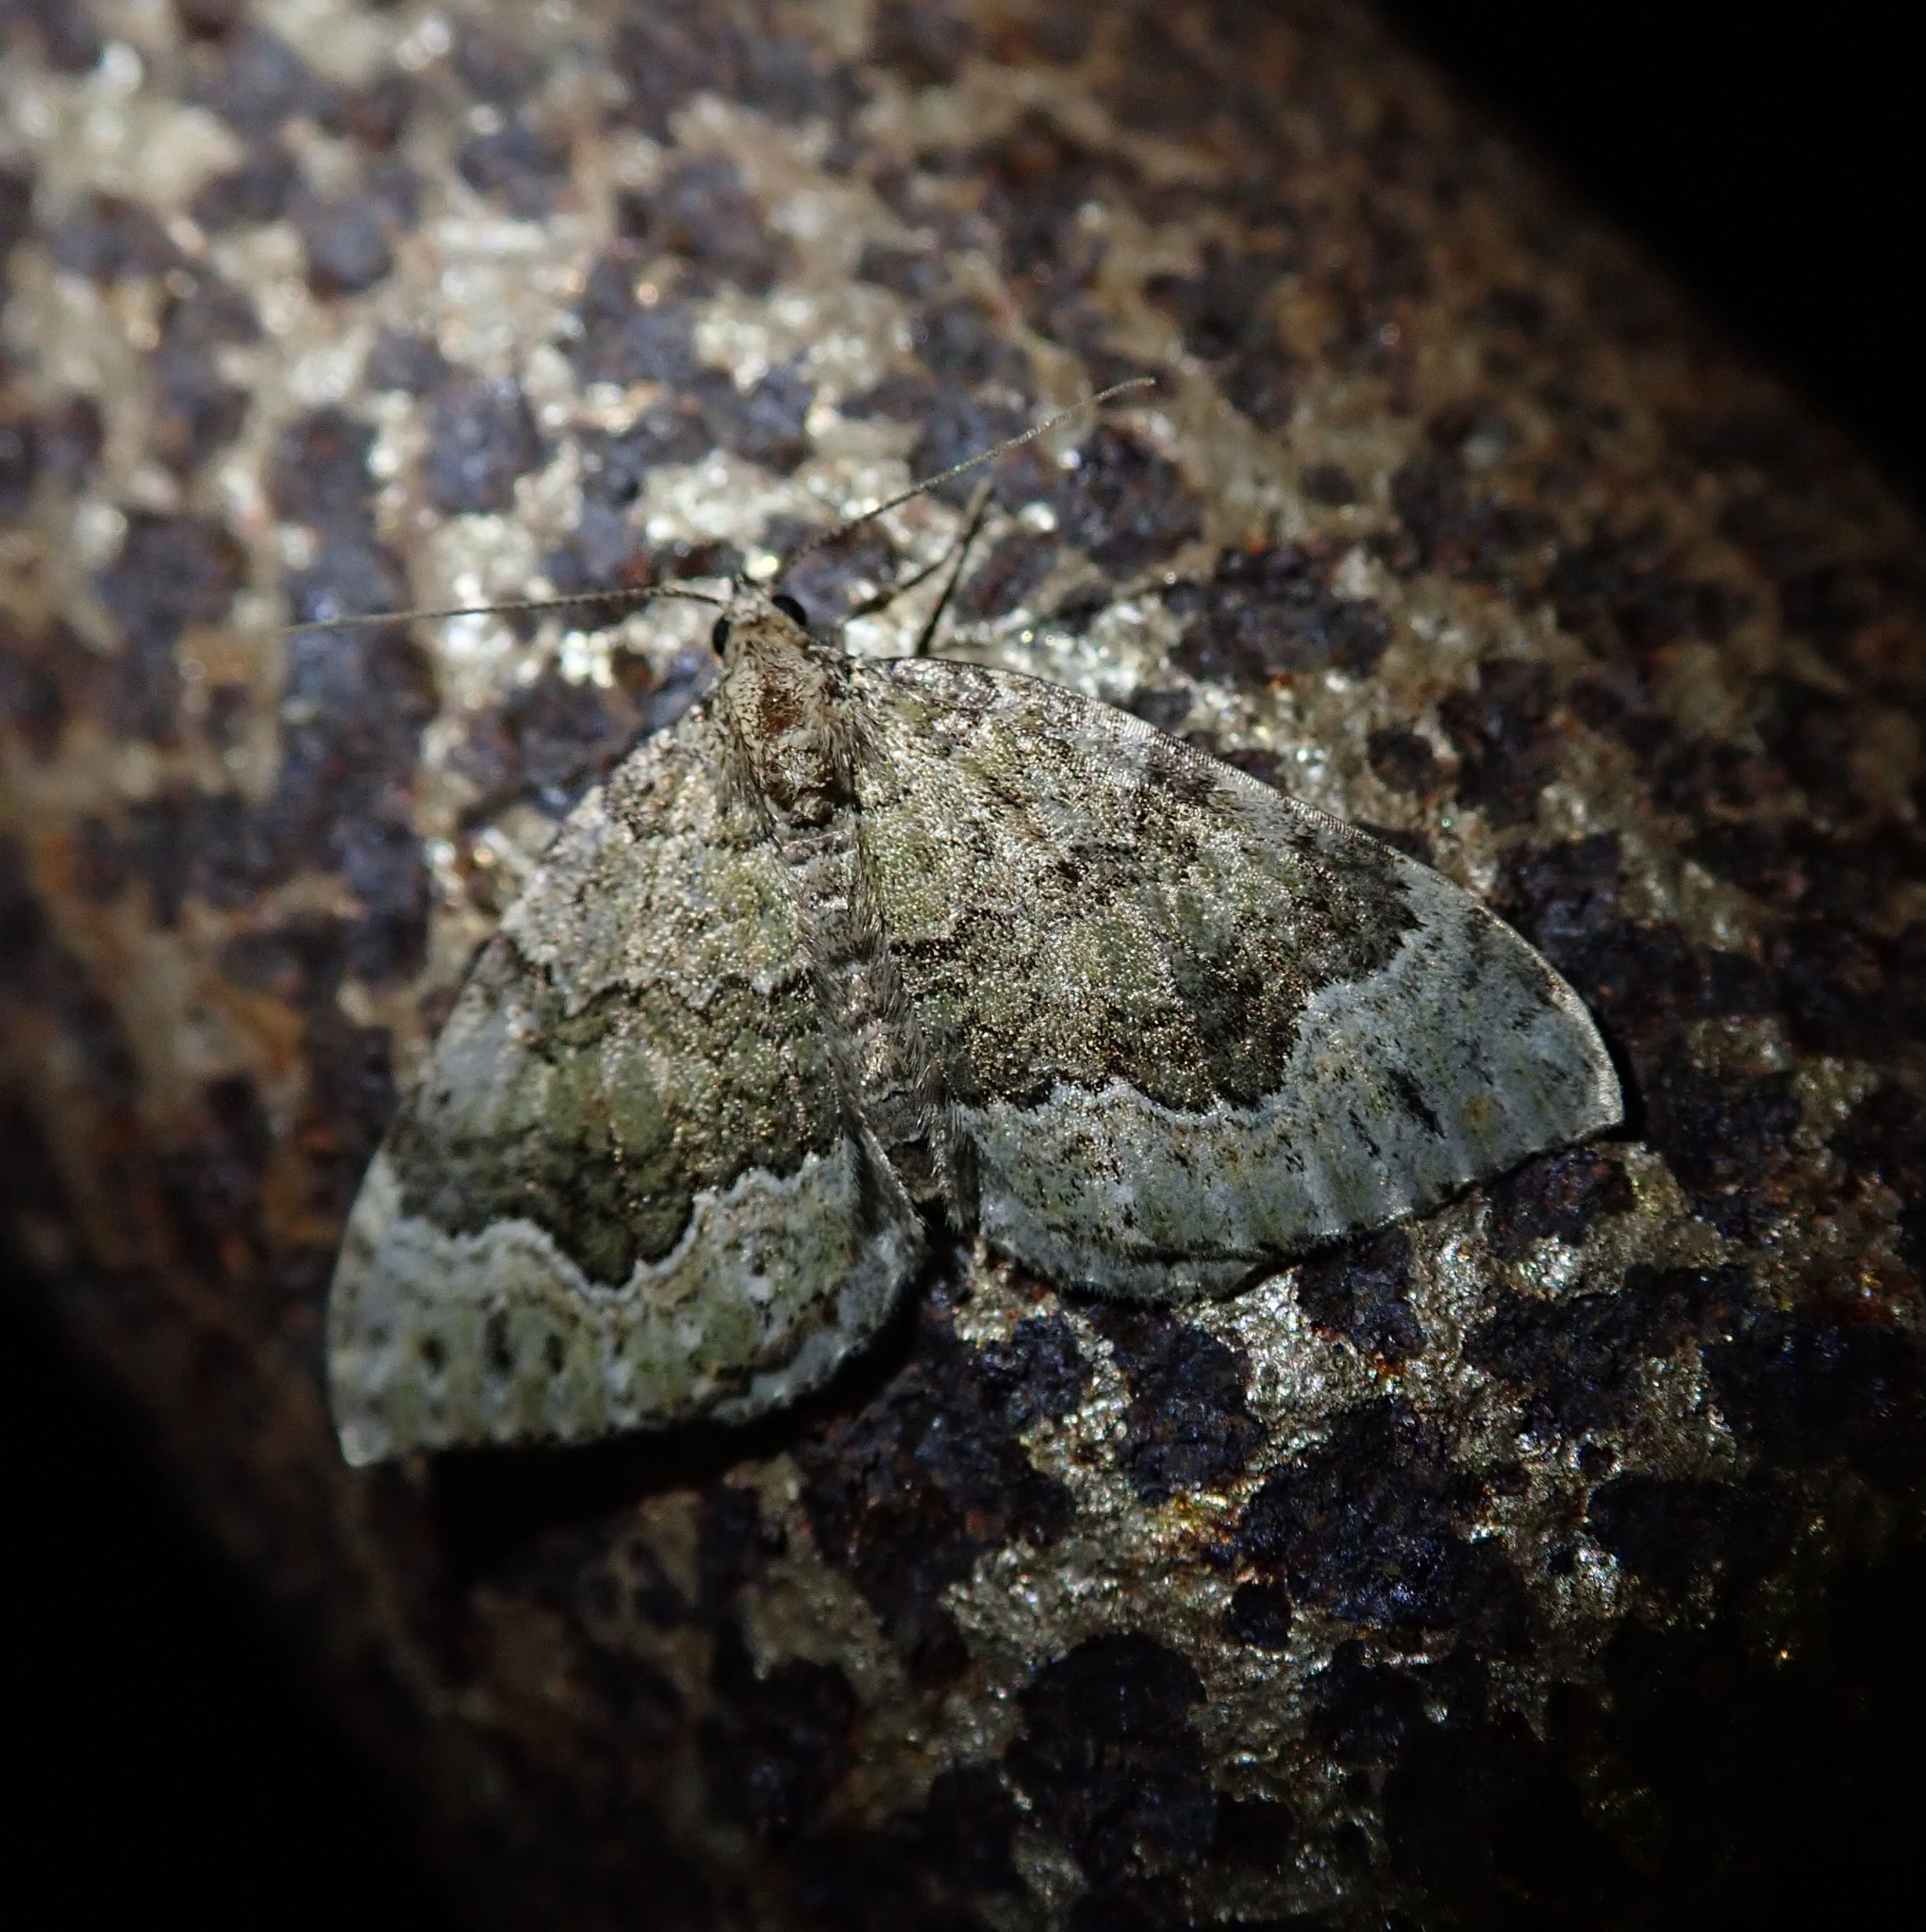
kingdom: Animalia
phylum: Arthropoda
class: Insecta
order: Lepidoptera
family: Geometridae
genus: Colostygia
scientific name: Colostygia olivata
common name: Beech-green carpet
